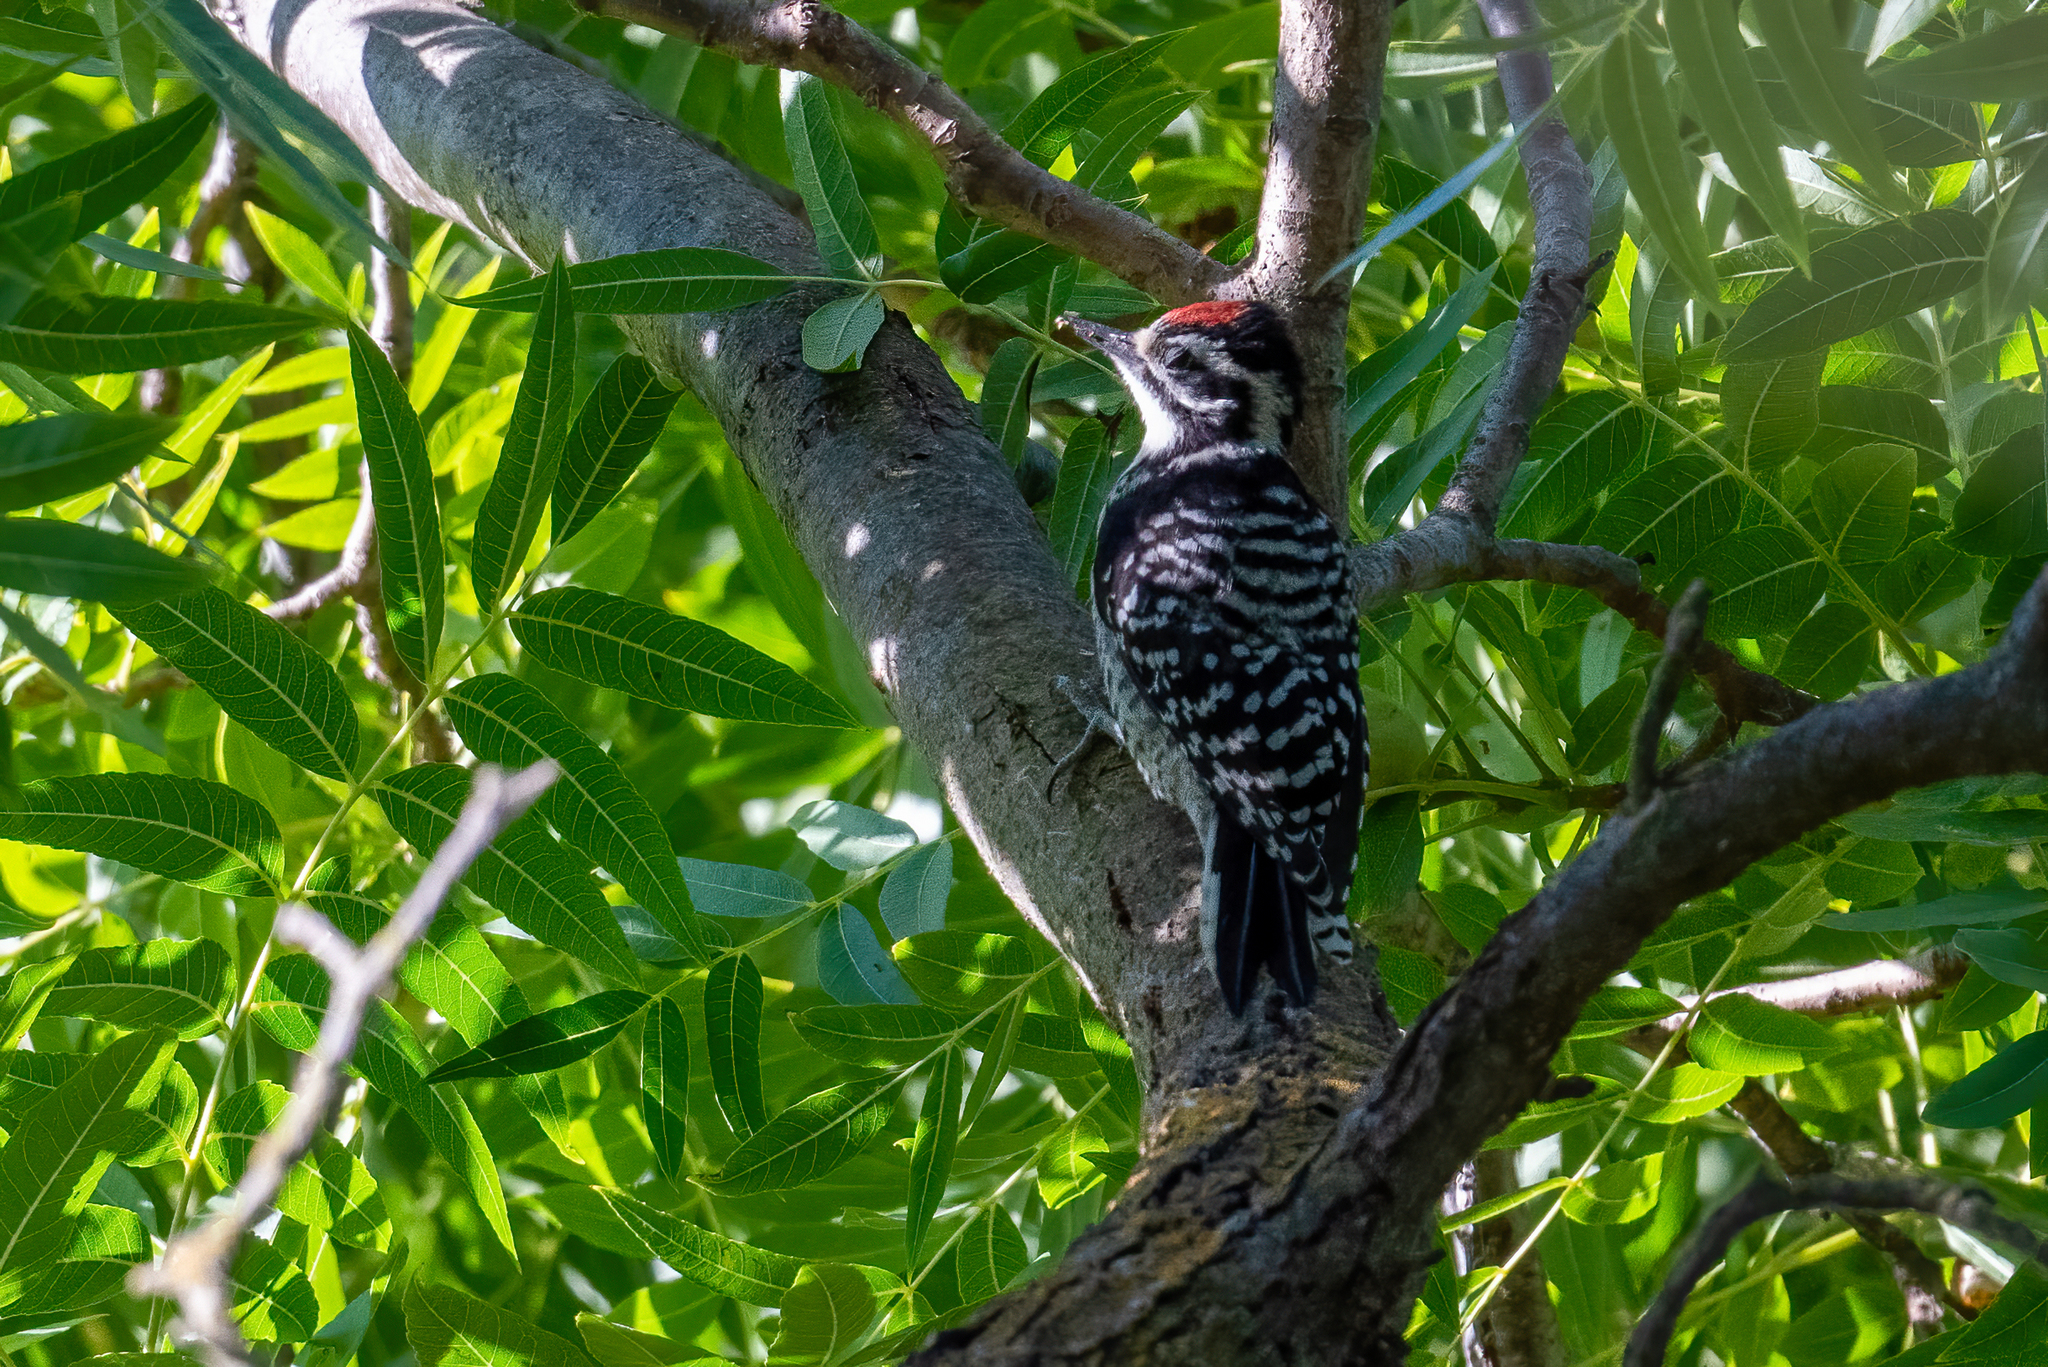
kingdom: Animalia
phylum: Chordata
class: Aves
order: Piciformes
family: Picidae
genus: Dryobates
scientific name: Dryobates nuttallii
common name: Nuttall's woodpecker
